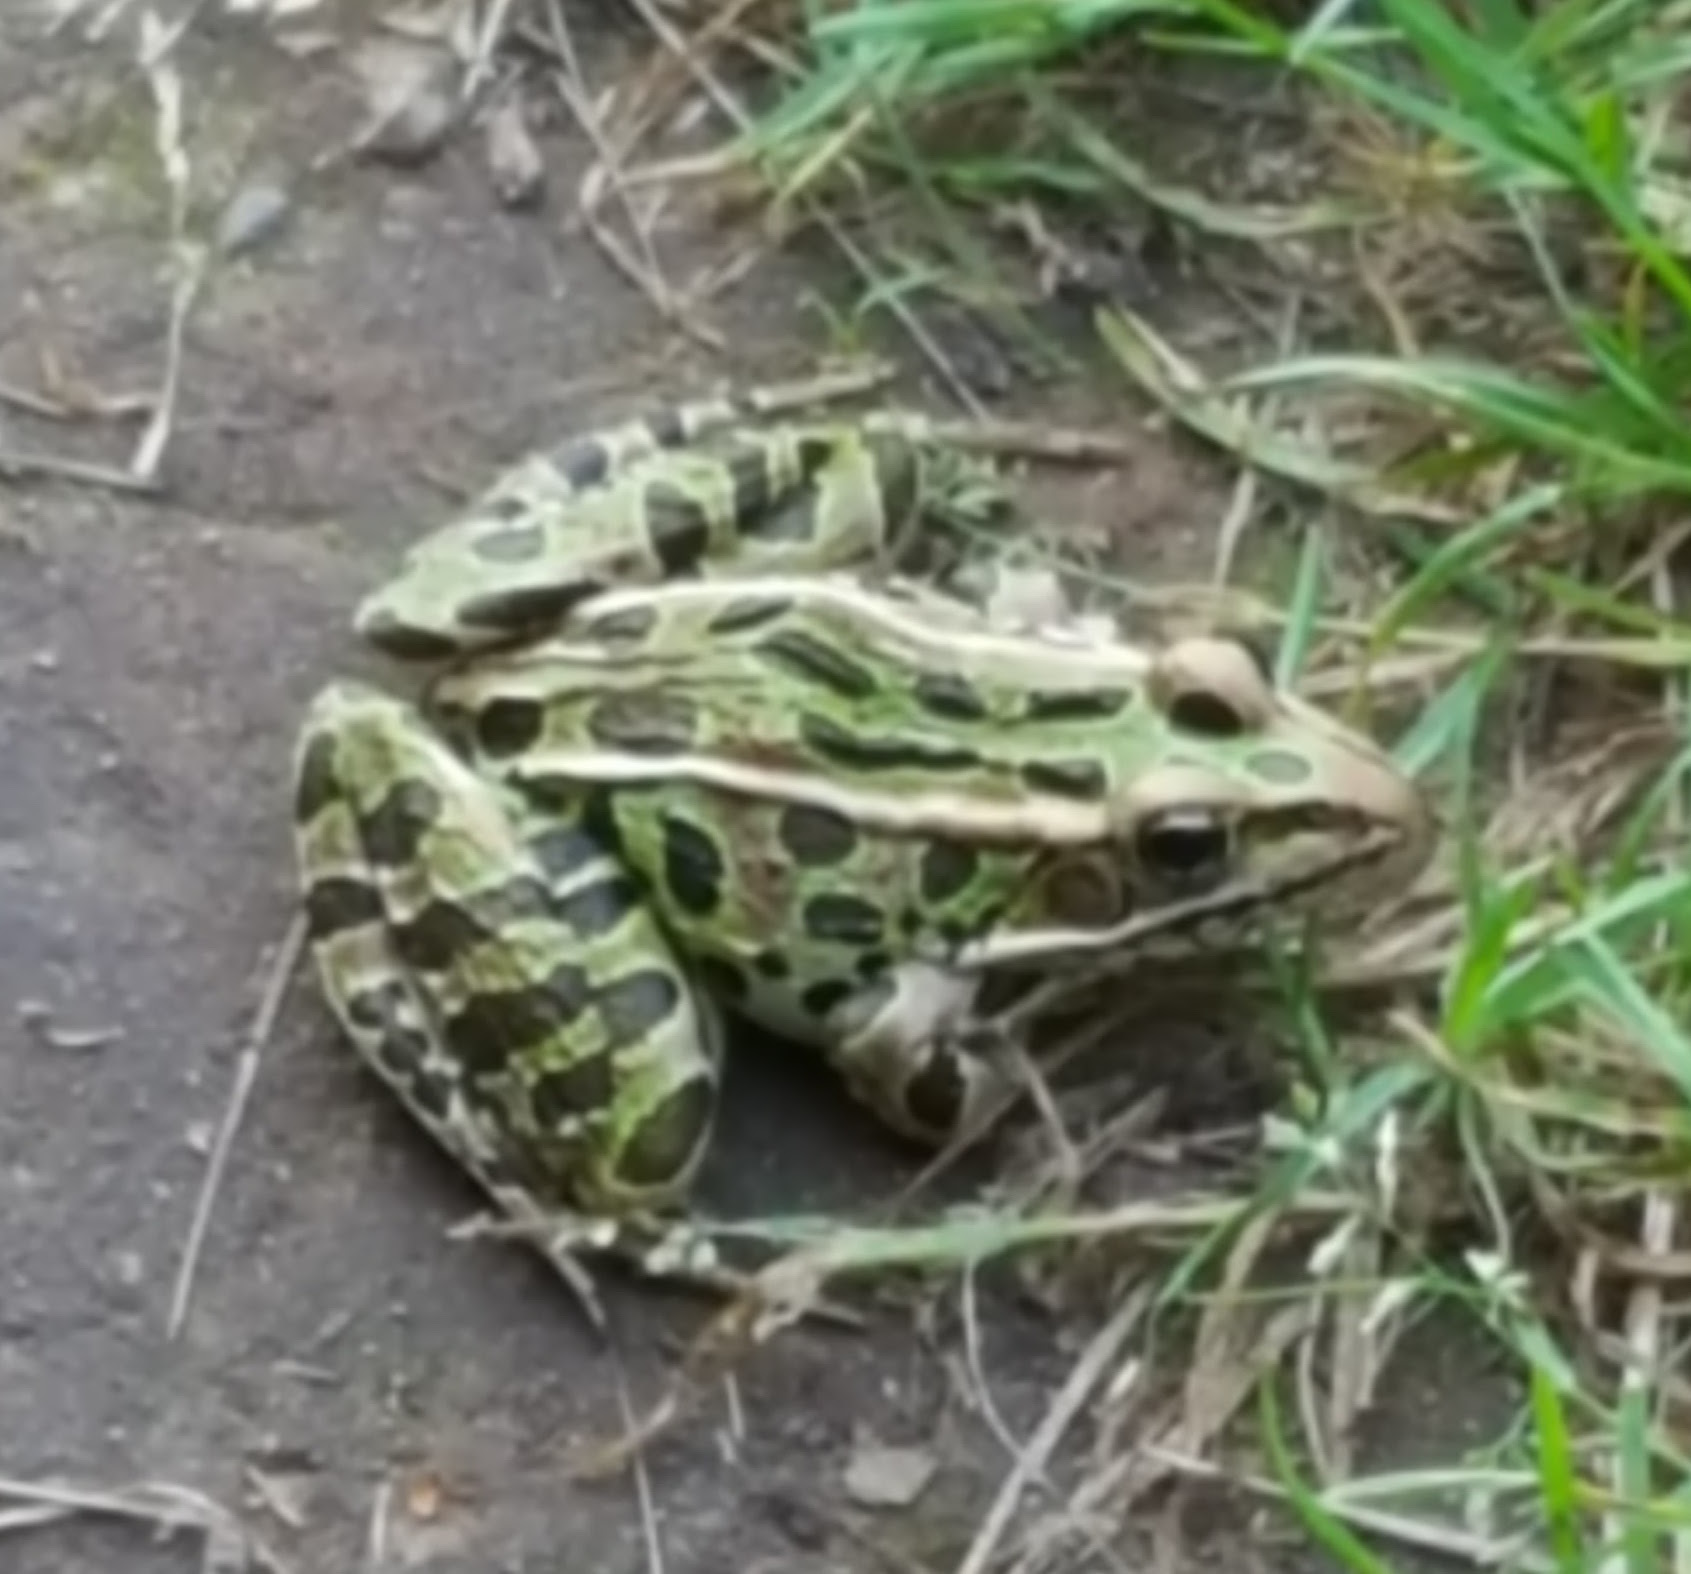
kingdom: Animalia
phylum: Chordata
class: Amphibia
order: Anura
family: Ranidae
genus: Lithobates
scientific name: Lithobates pipiens
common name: Northern leopard frog
